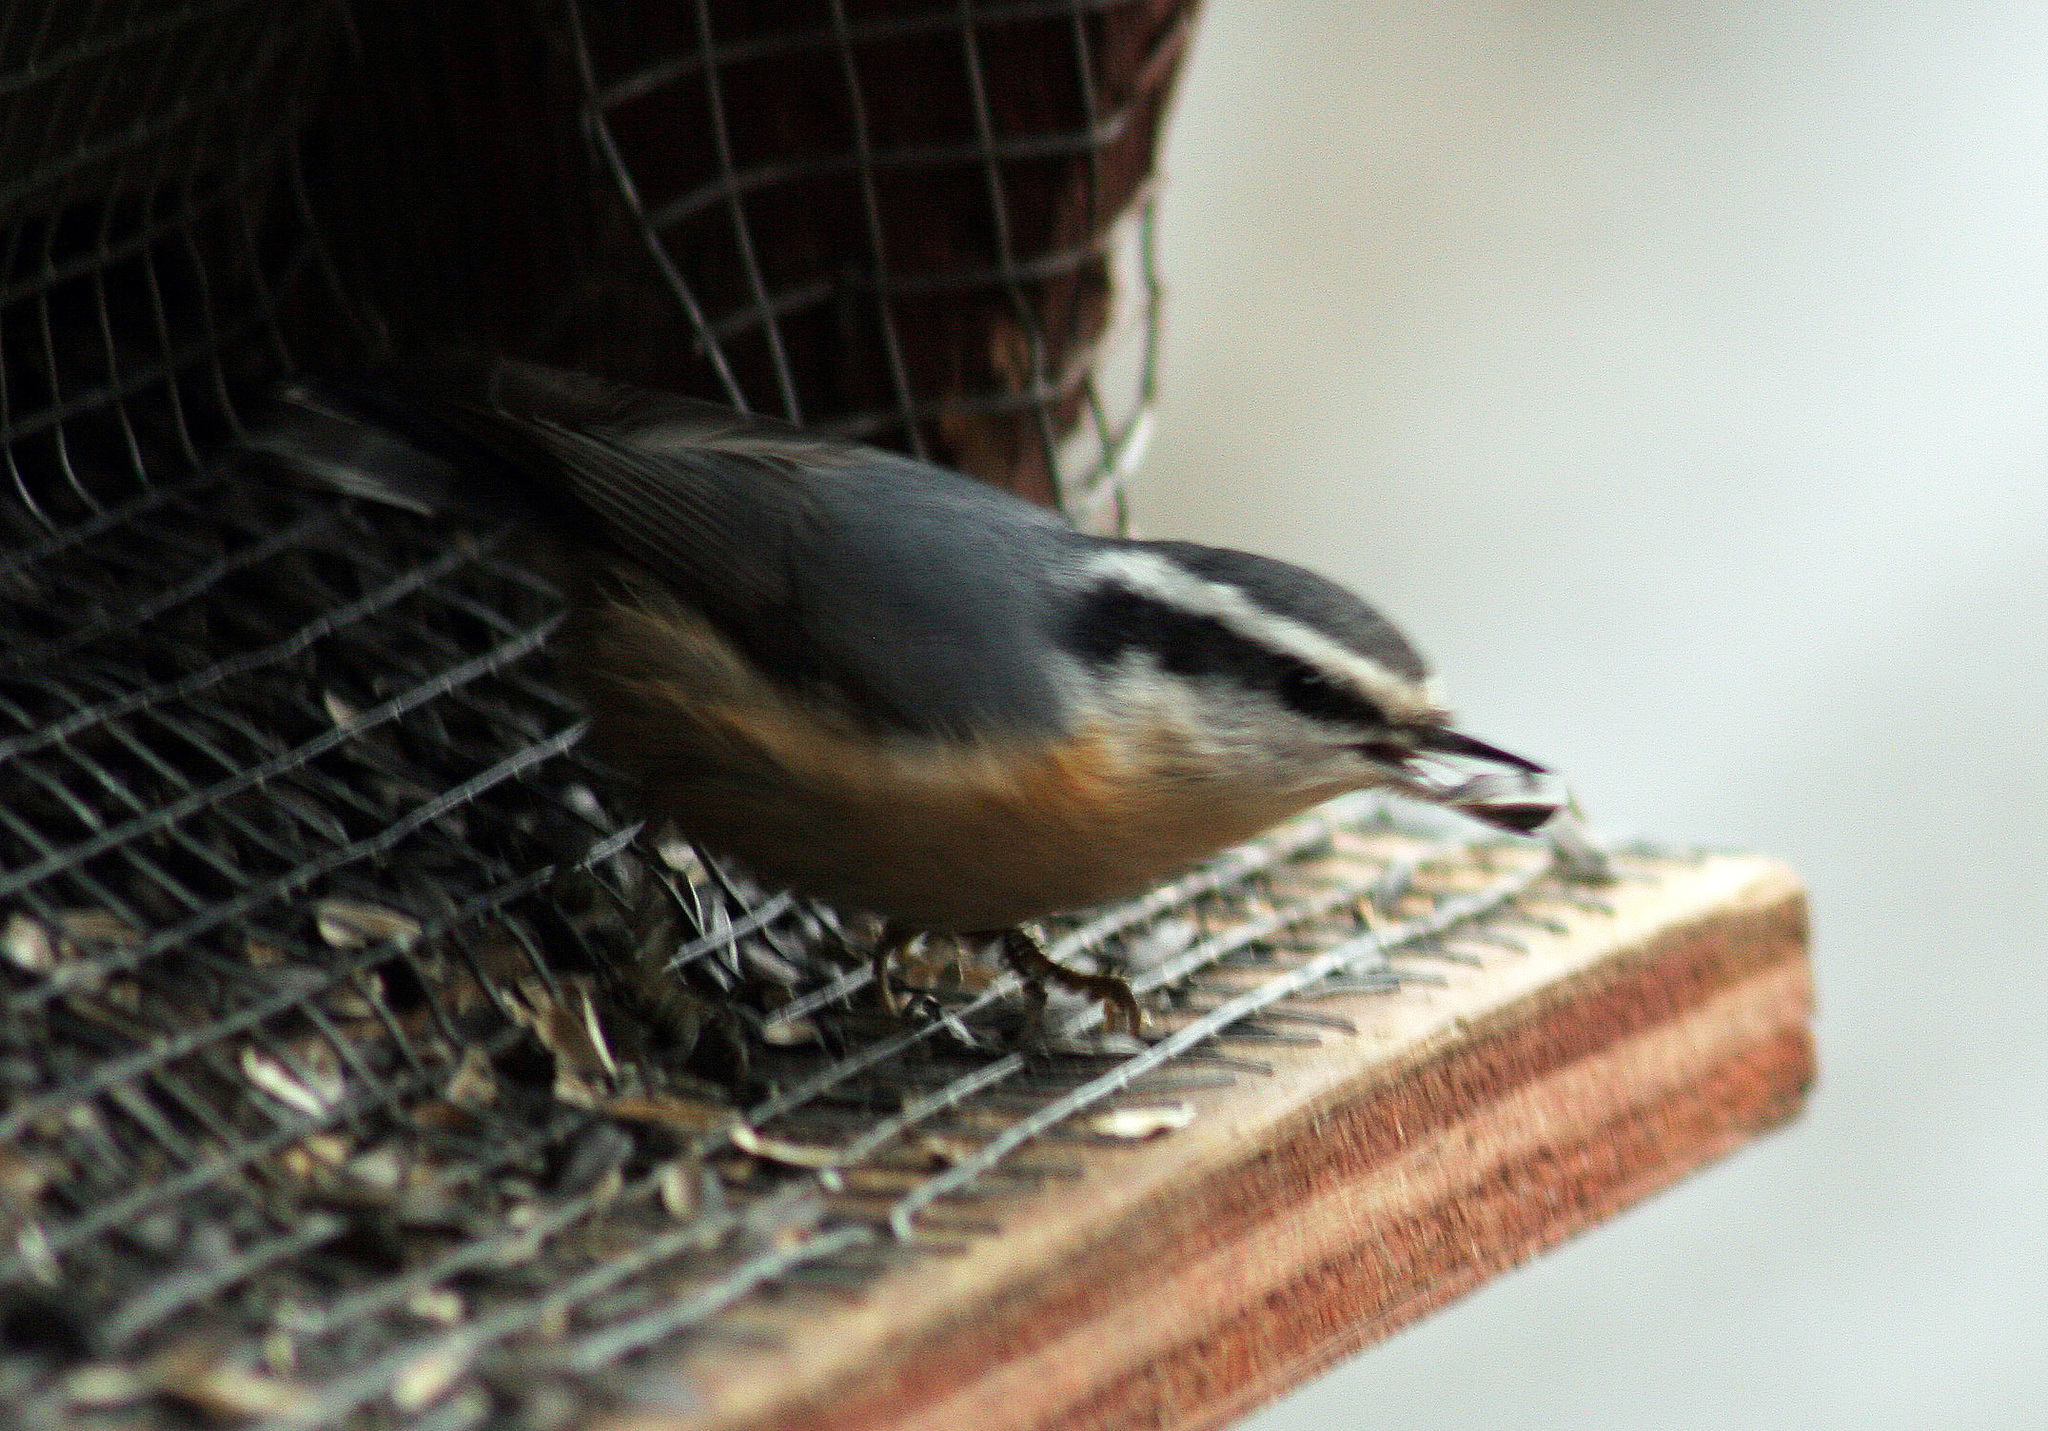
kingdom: Animalia
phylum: Chordata
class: Aves
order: Passeriformes
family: Sittidae
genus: Sitta
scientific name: Sitta canadensis
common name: Red-breasted nuthatch
